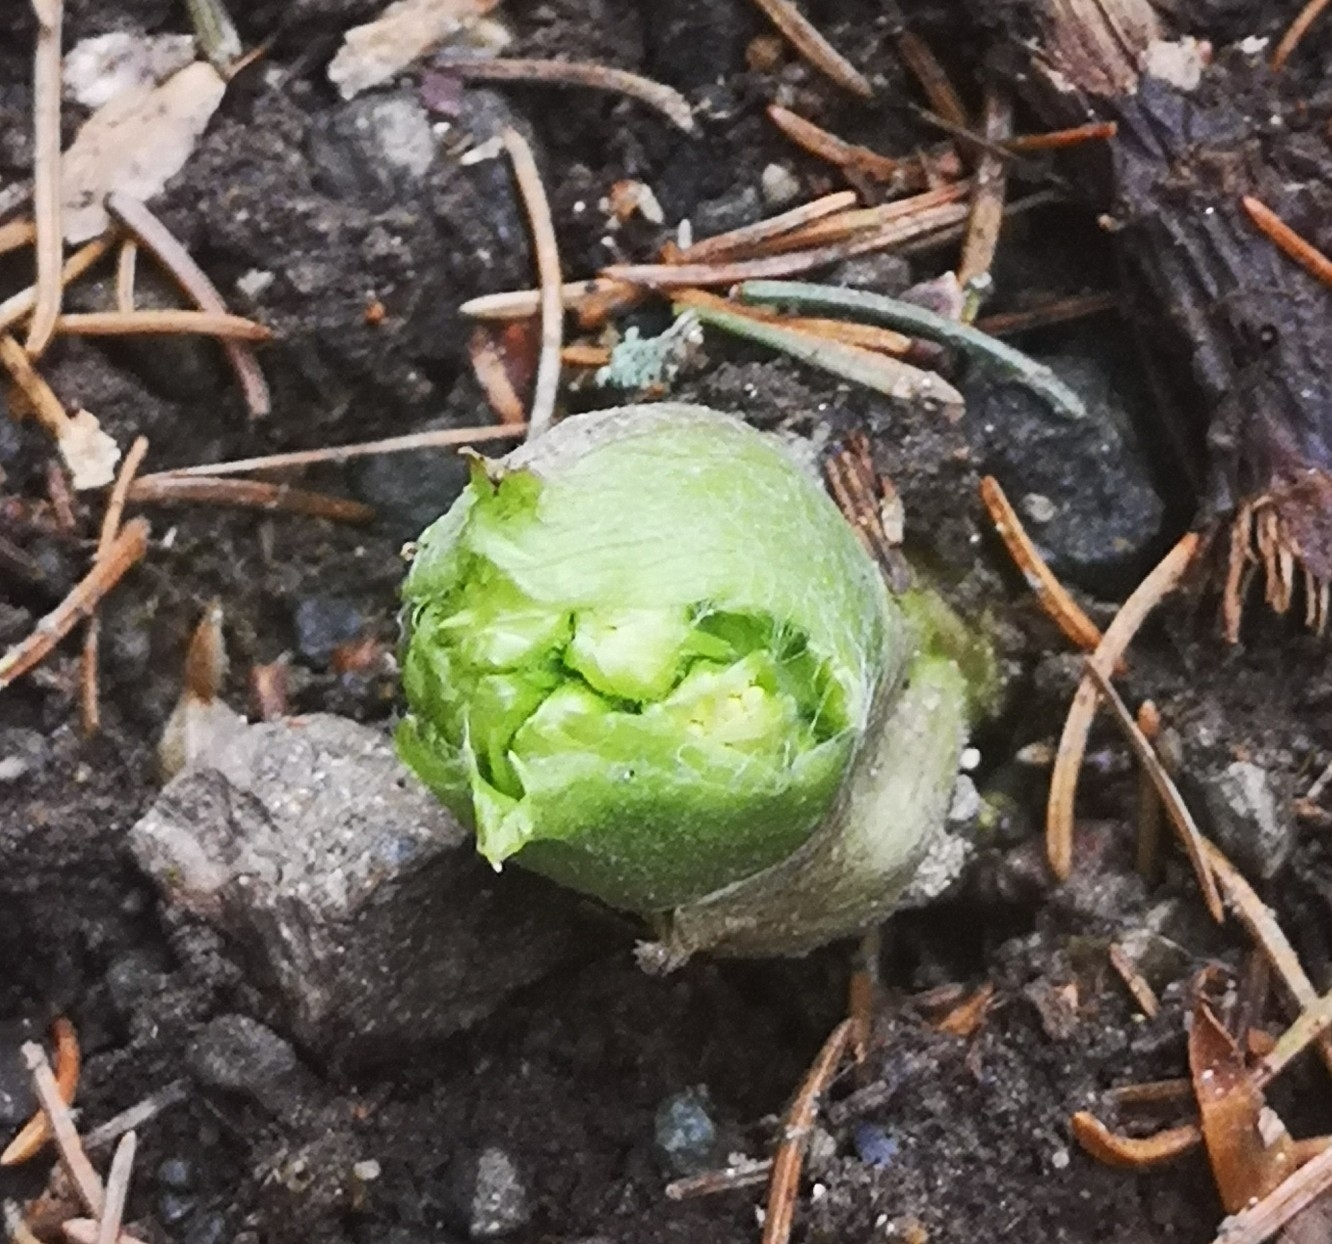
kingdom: Plantae
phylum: Tracheophyta
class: Magnoliopsida
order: Asterales
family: Asteraceae
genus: Petasites
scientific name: Petasites albus
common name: White butterbur
